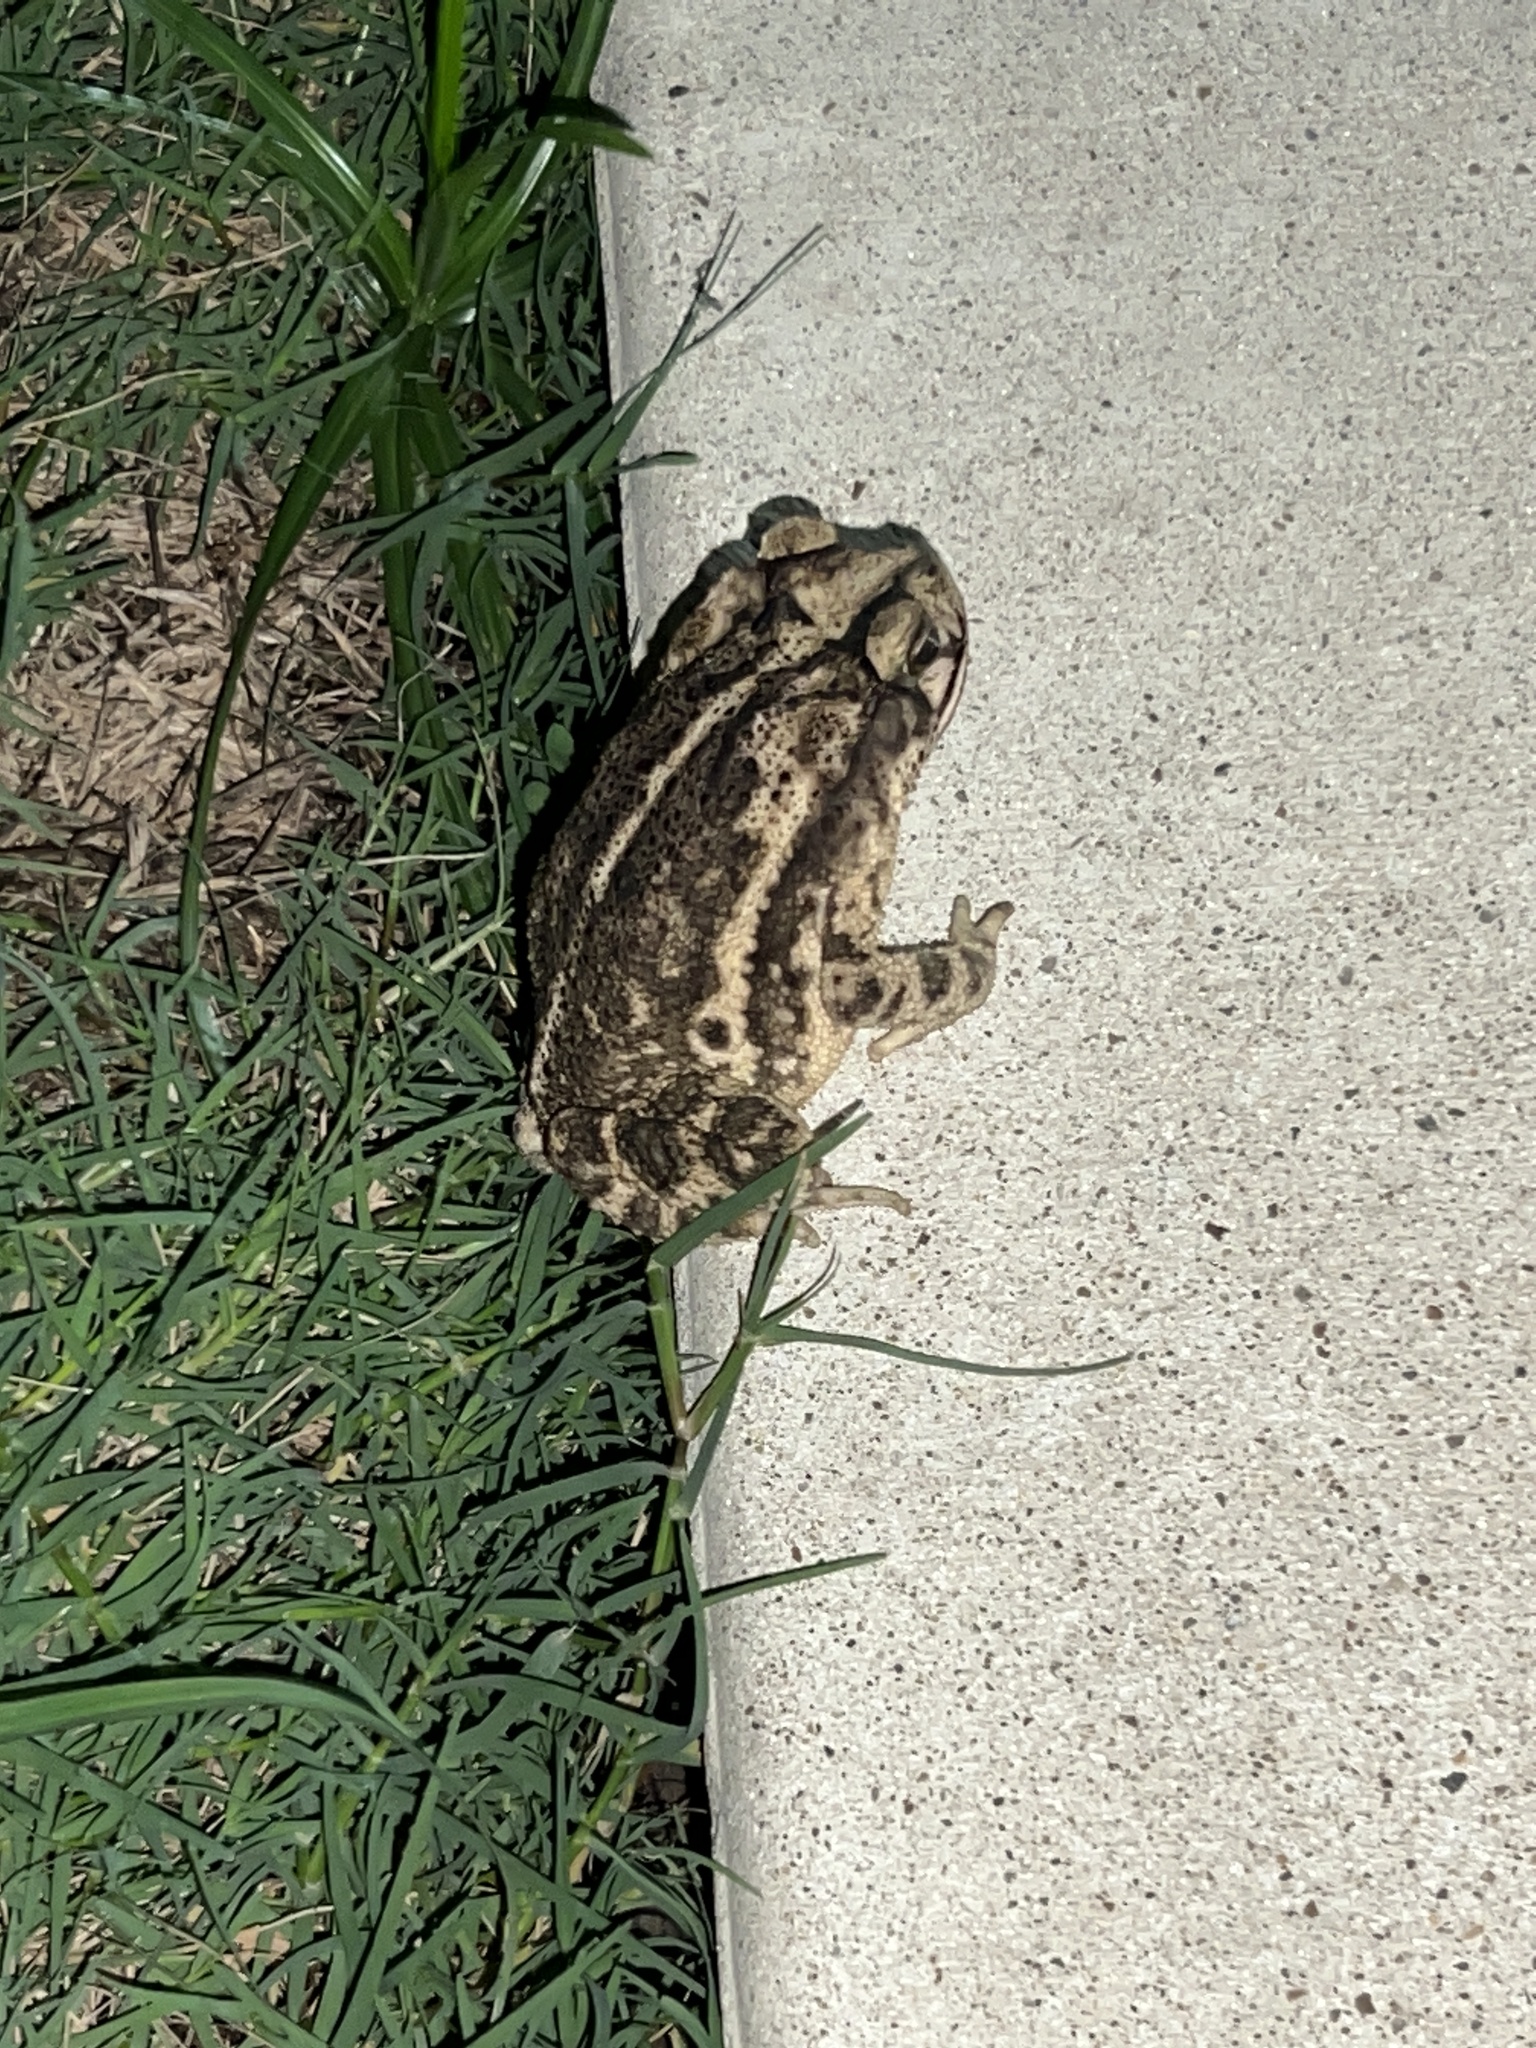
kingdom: Animalia
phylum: Chordata
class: Amphibia
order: Anura
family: Bufonidae
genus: Incilius
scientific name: Incilius nebulifer
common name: Gulf coast toad
